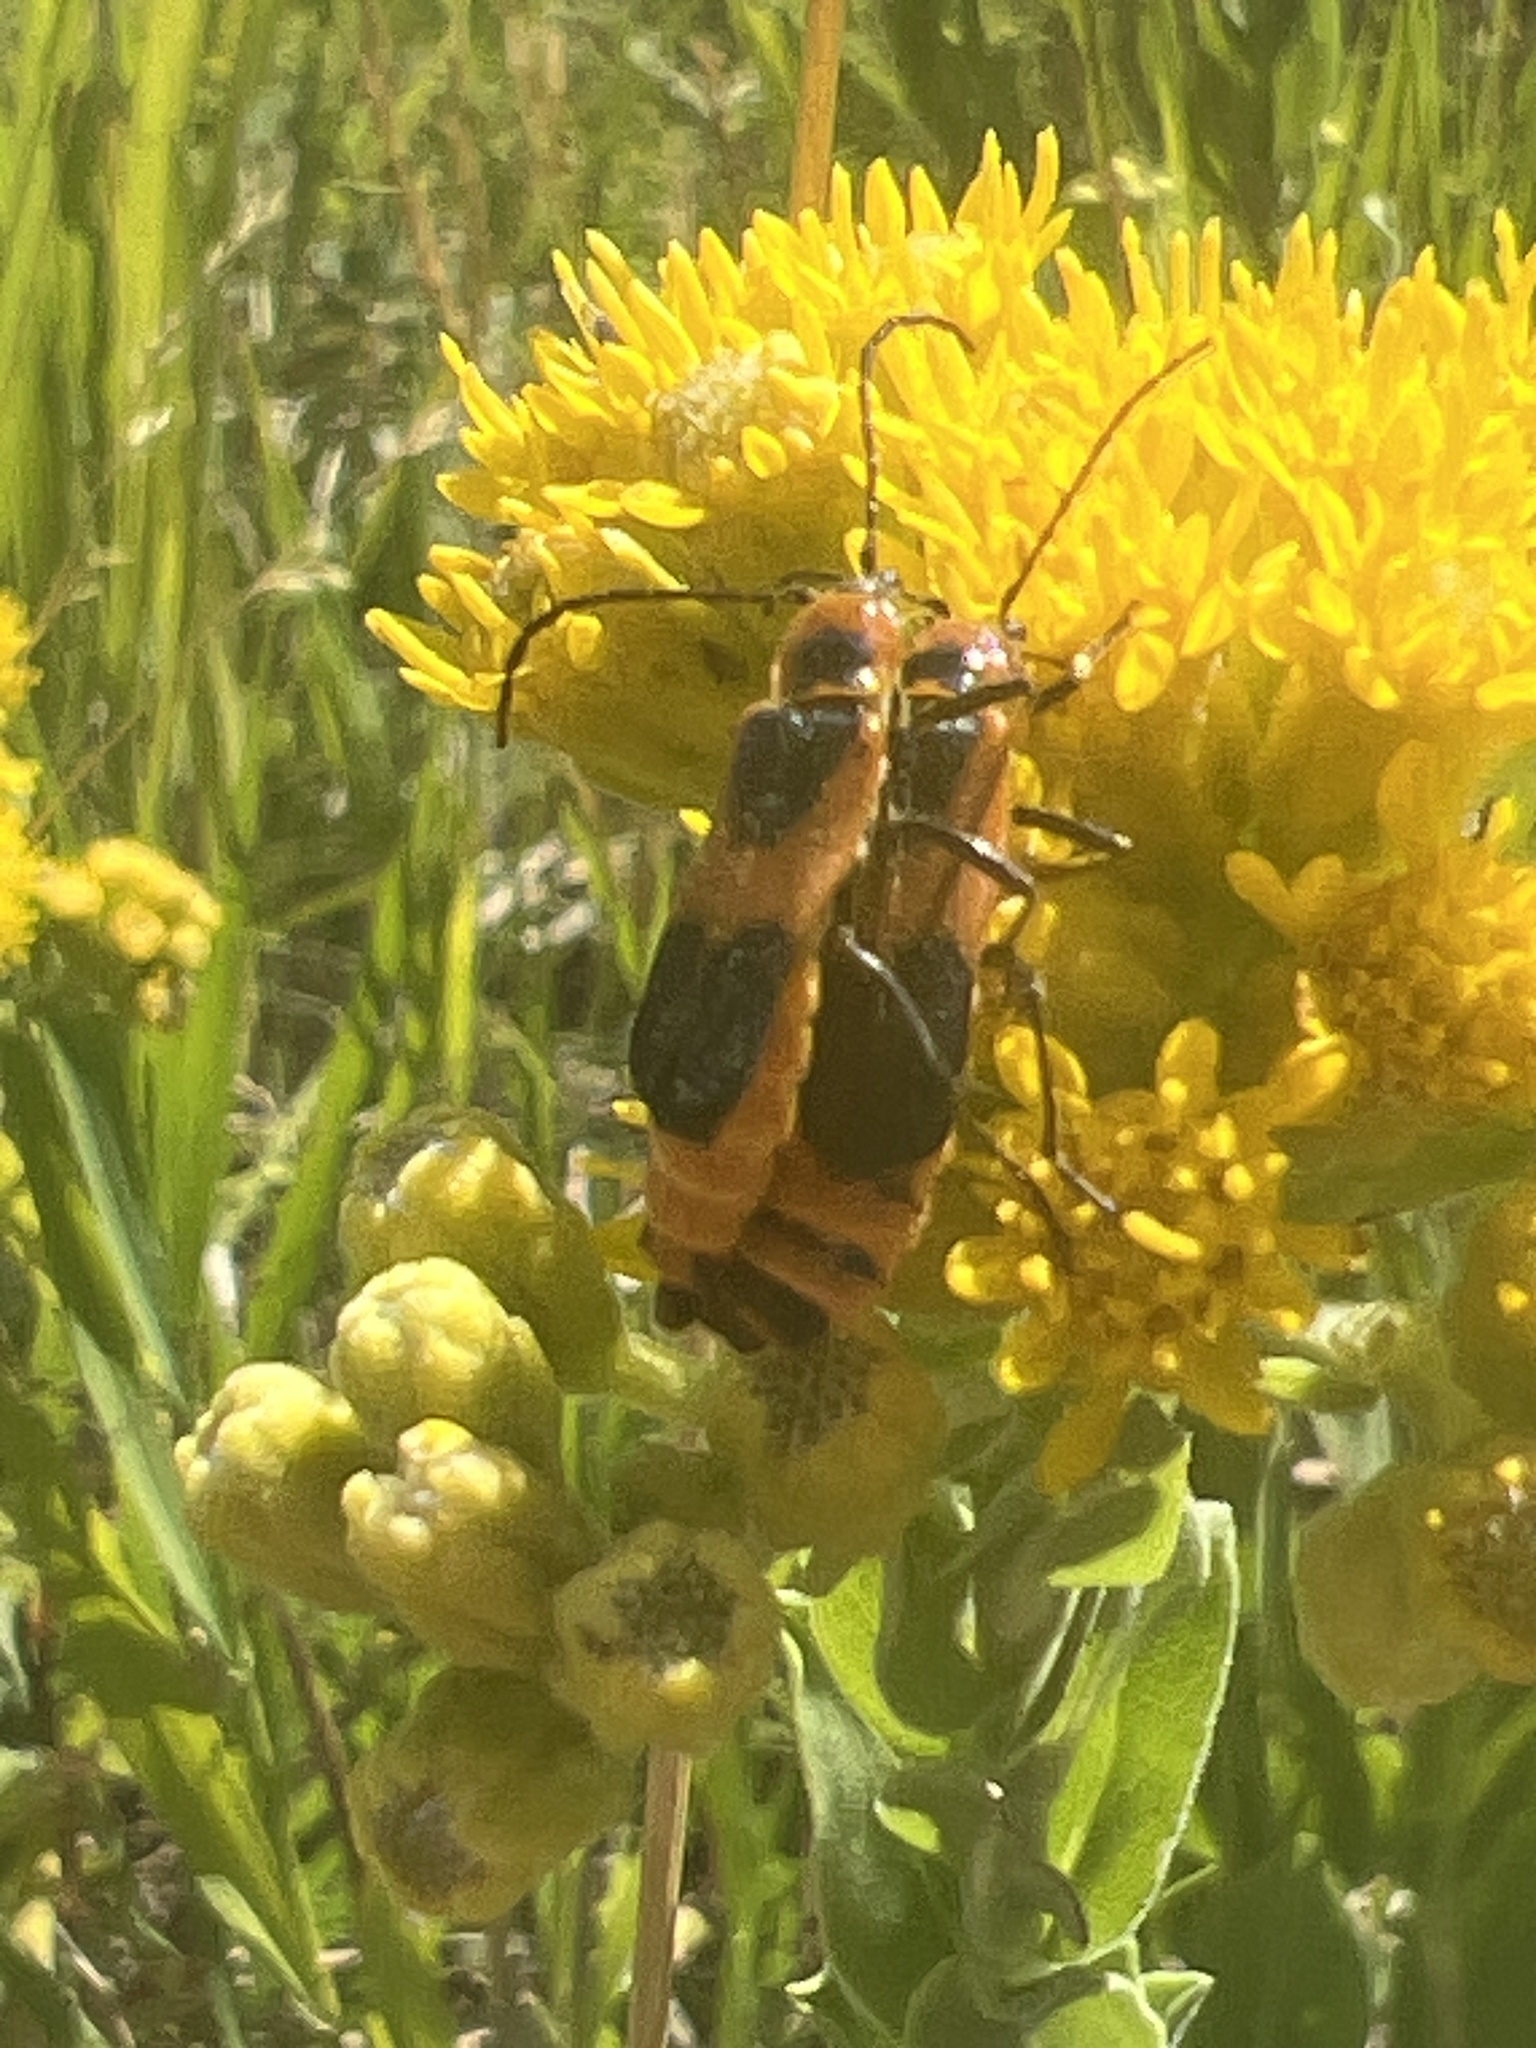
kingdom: Animalia
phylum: Arthropoda
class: Insecta
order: Coleoptera
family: Cantharidae
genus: Chauliognathus
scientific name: Chauliognathus basalis
